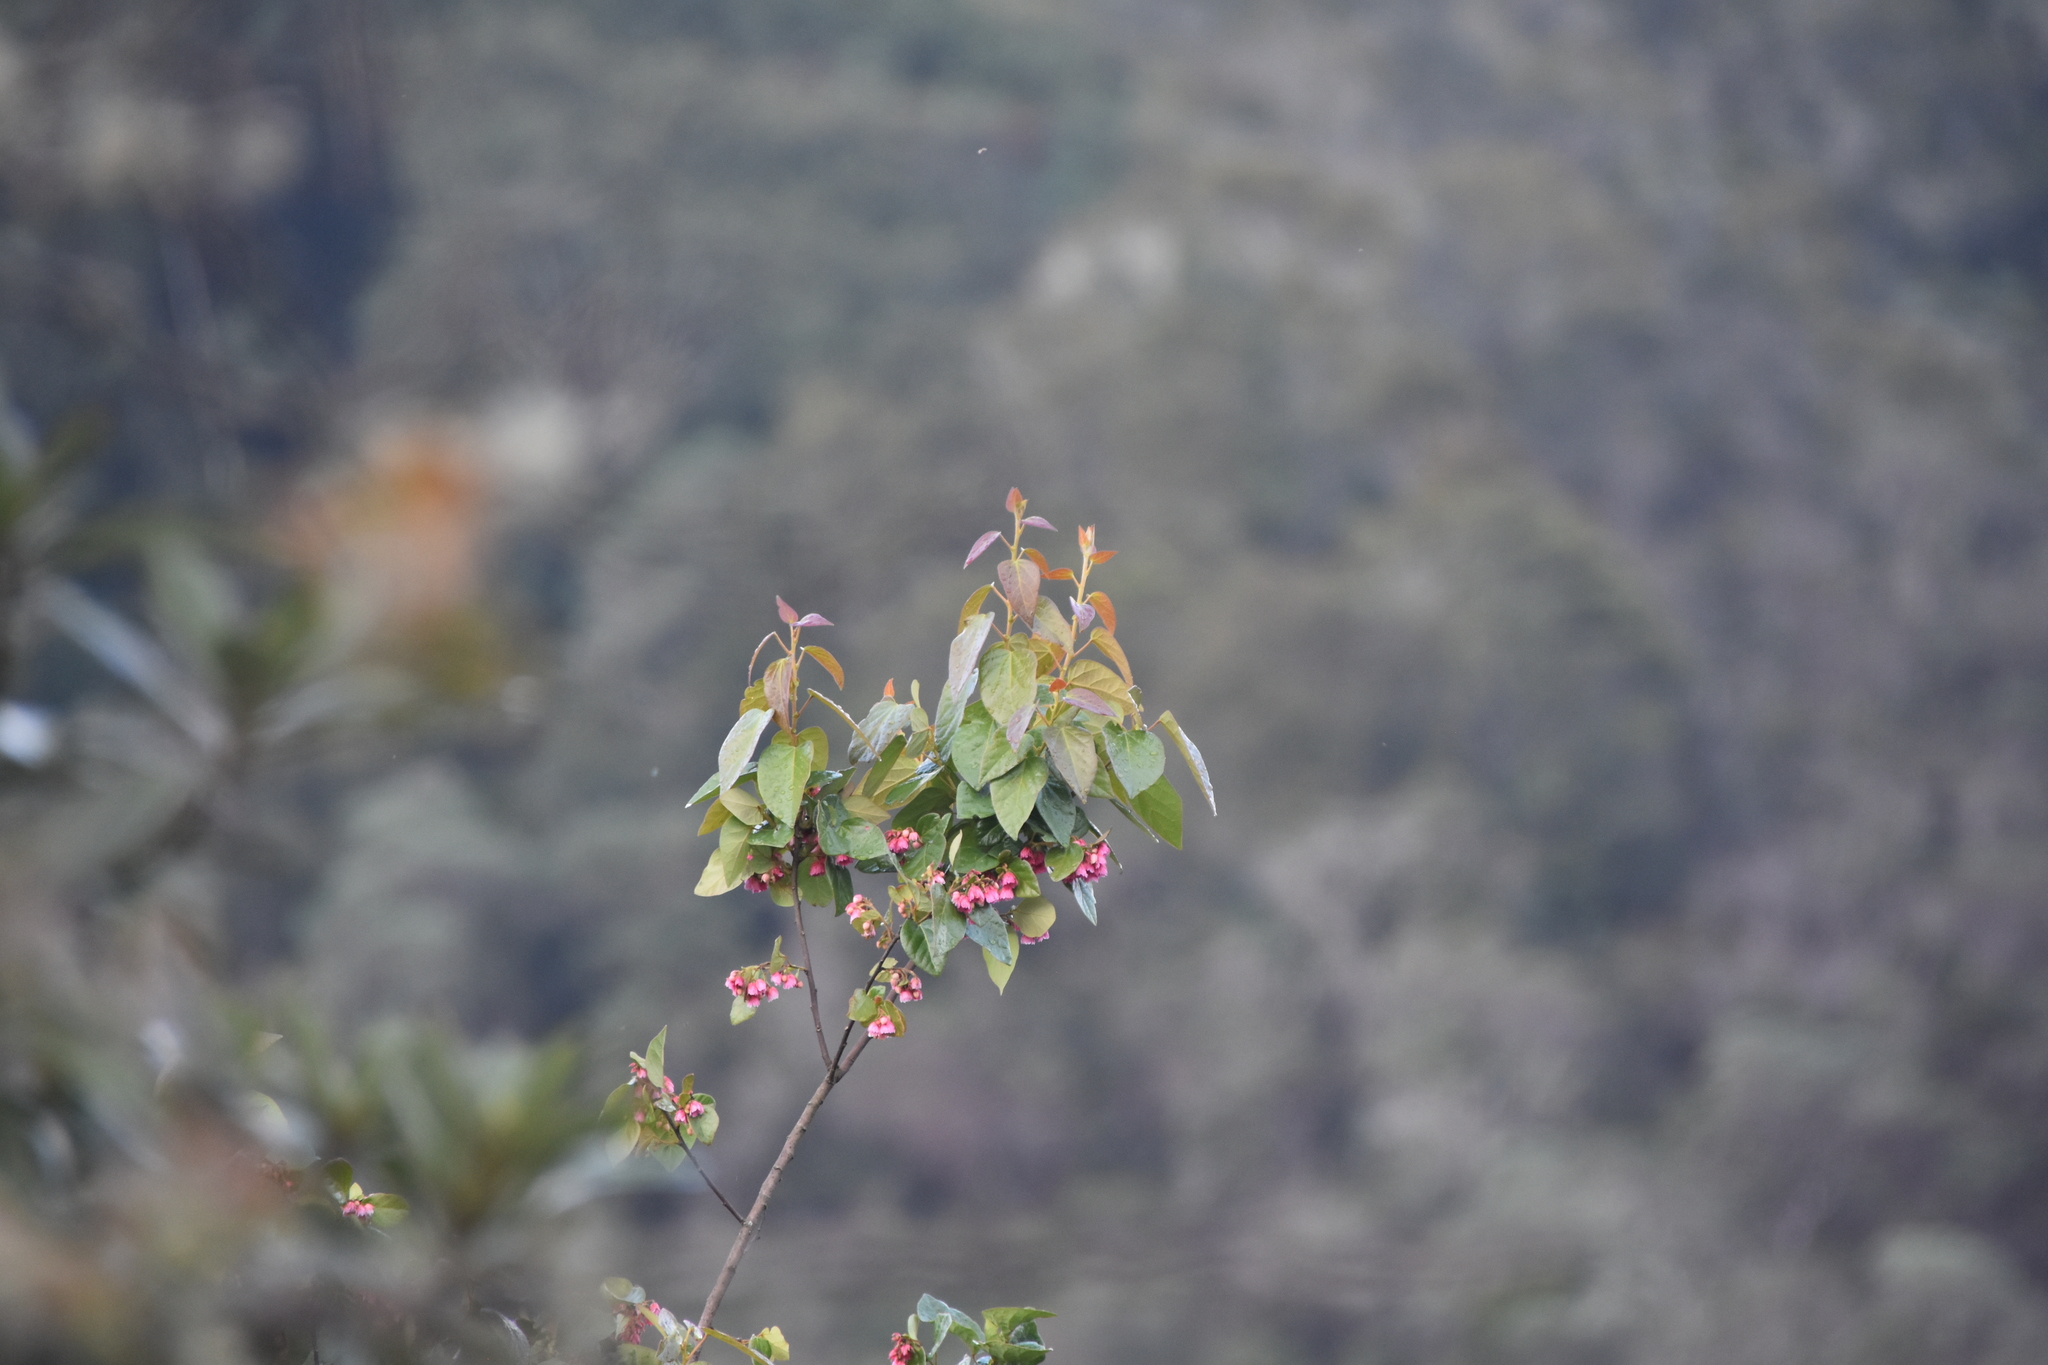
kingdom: Plantae
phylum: Tracheophyta
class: Magnoliopsida
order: Oxalidales
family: Elaeocarpaceae
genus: Vallea
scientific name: Vallea stipularis
